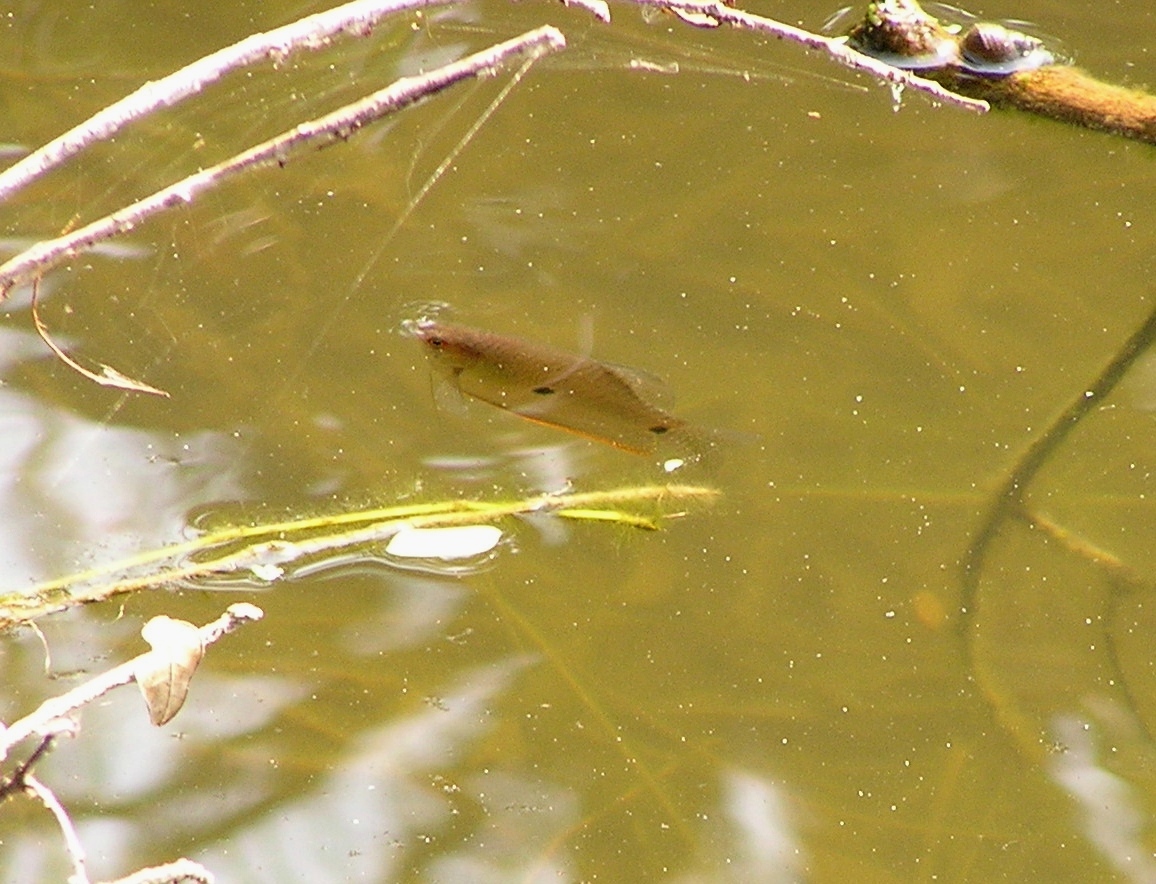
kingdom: Animalia
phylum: Chordata
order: Perciformes
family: Osphronemidae
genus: Trichopodus
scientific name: Trichopodus trichopterus
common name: Blue gourami
